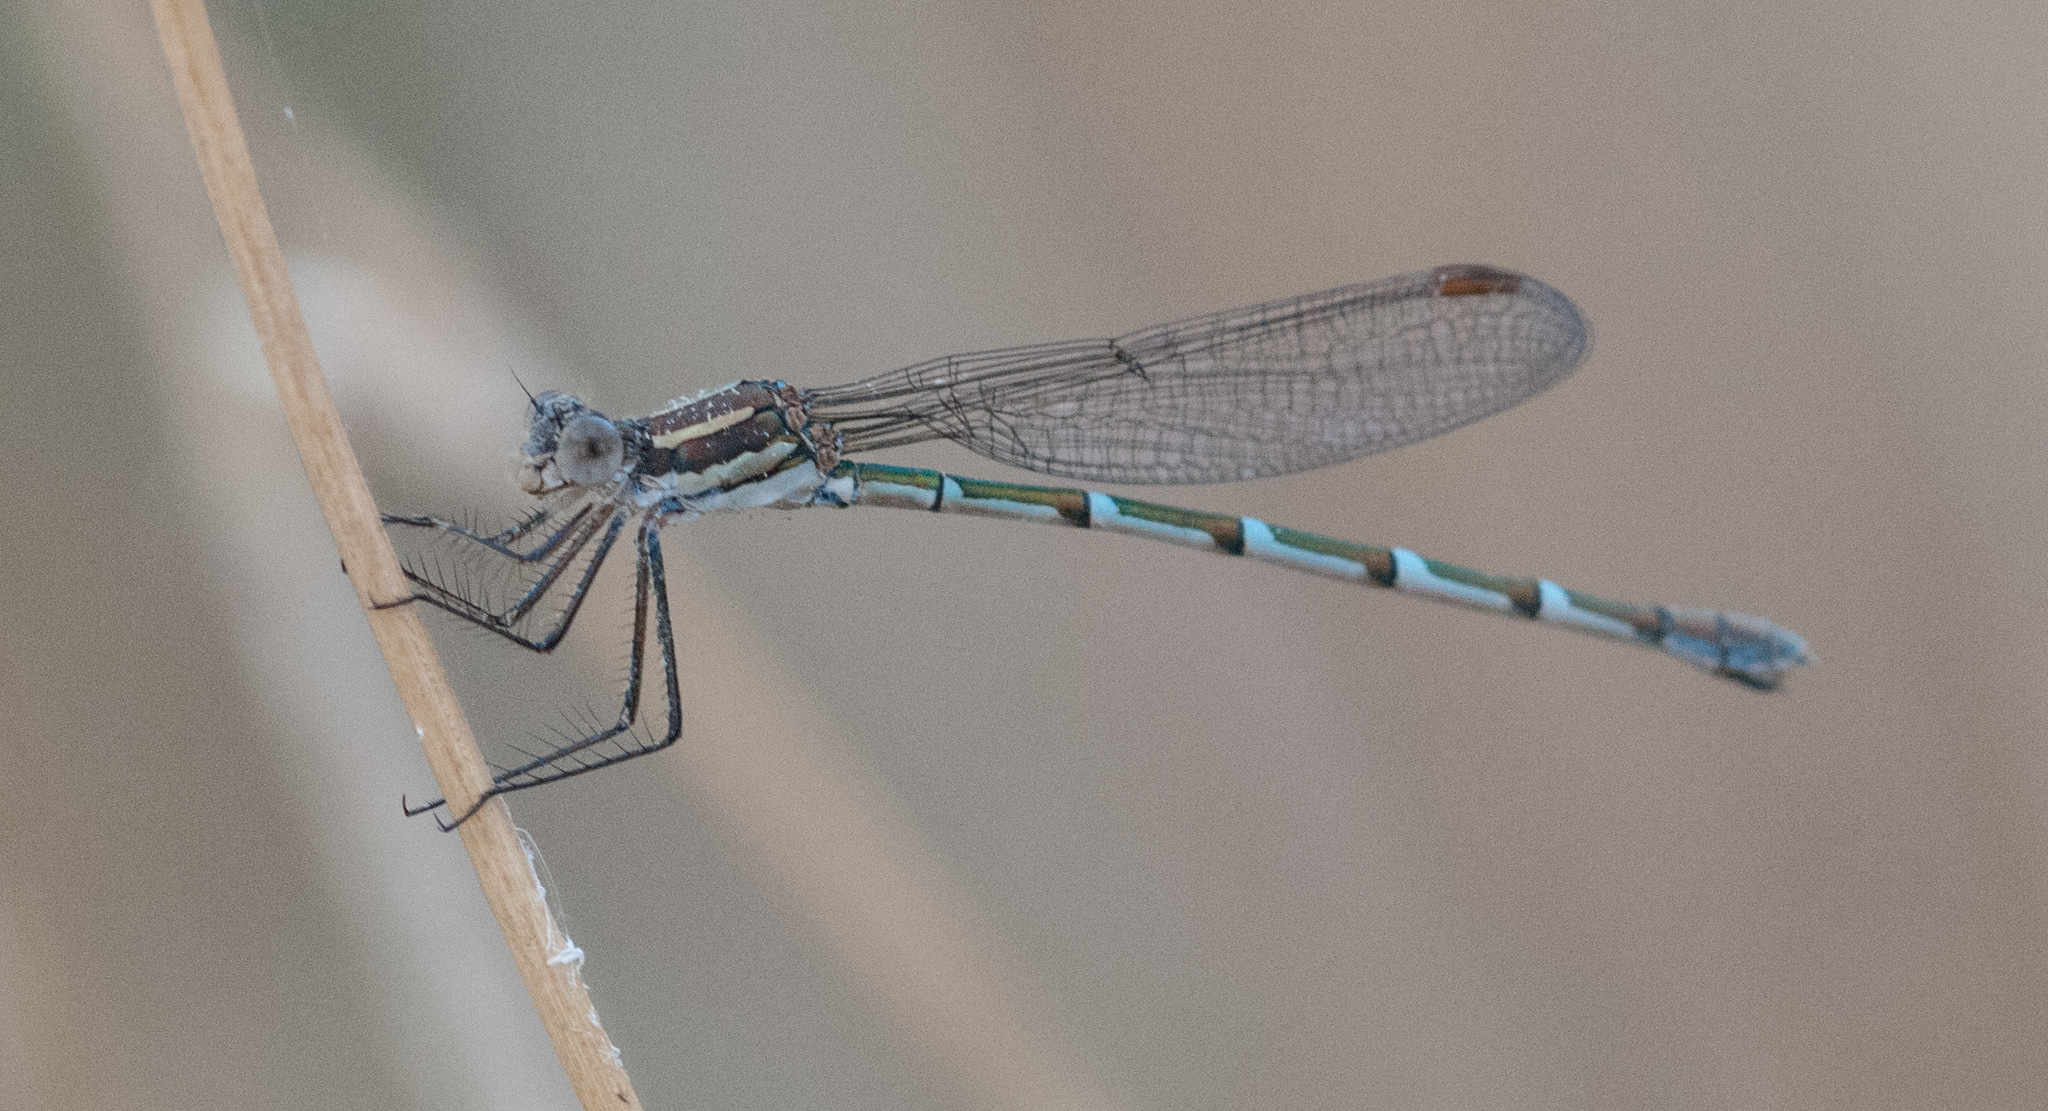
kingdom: Animalia
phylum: Arthropoda
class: Insecta
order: Odonata
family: Lestidae
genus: Austrolestes
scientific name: Austrolestes annulosus
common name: Blue ringtail
